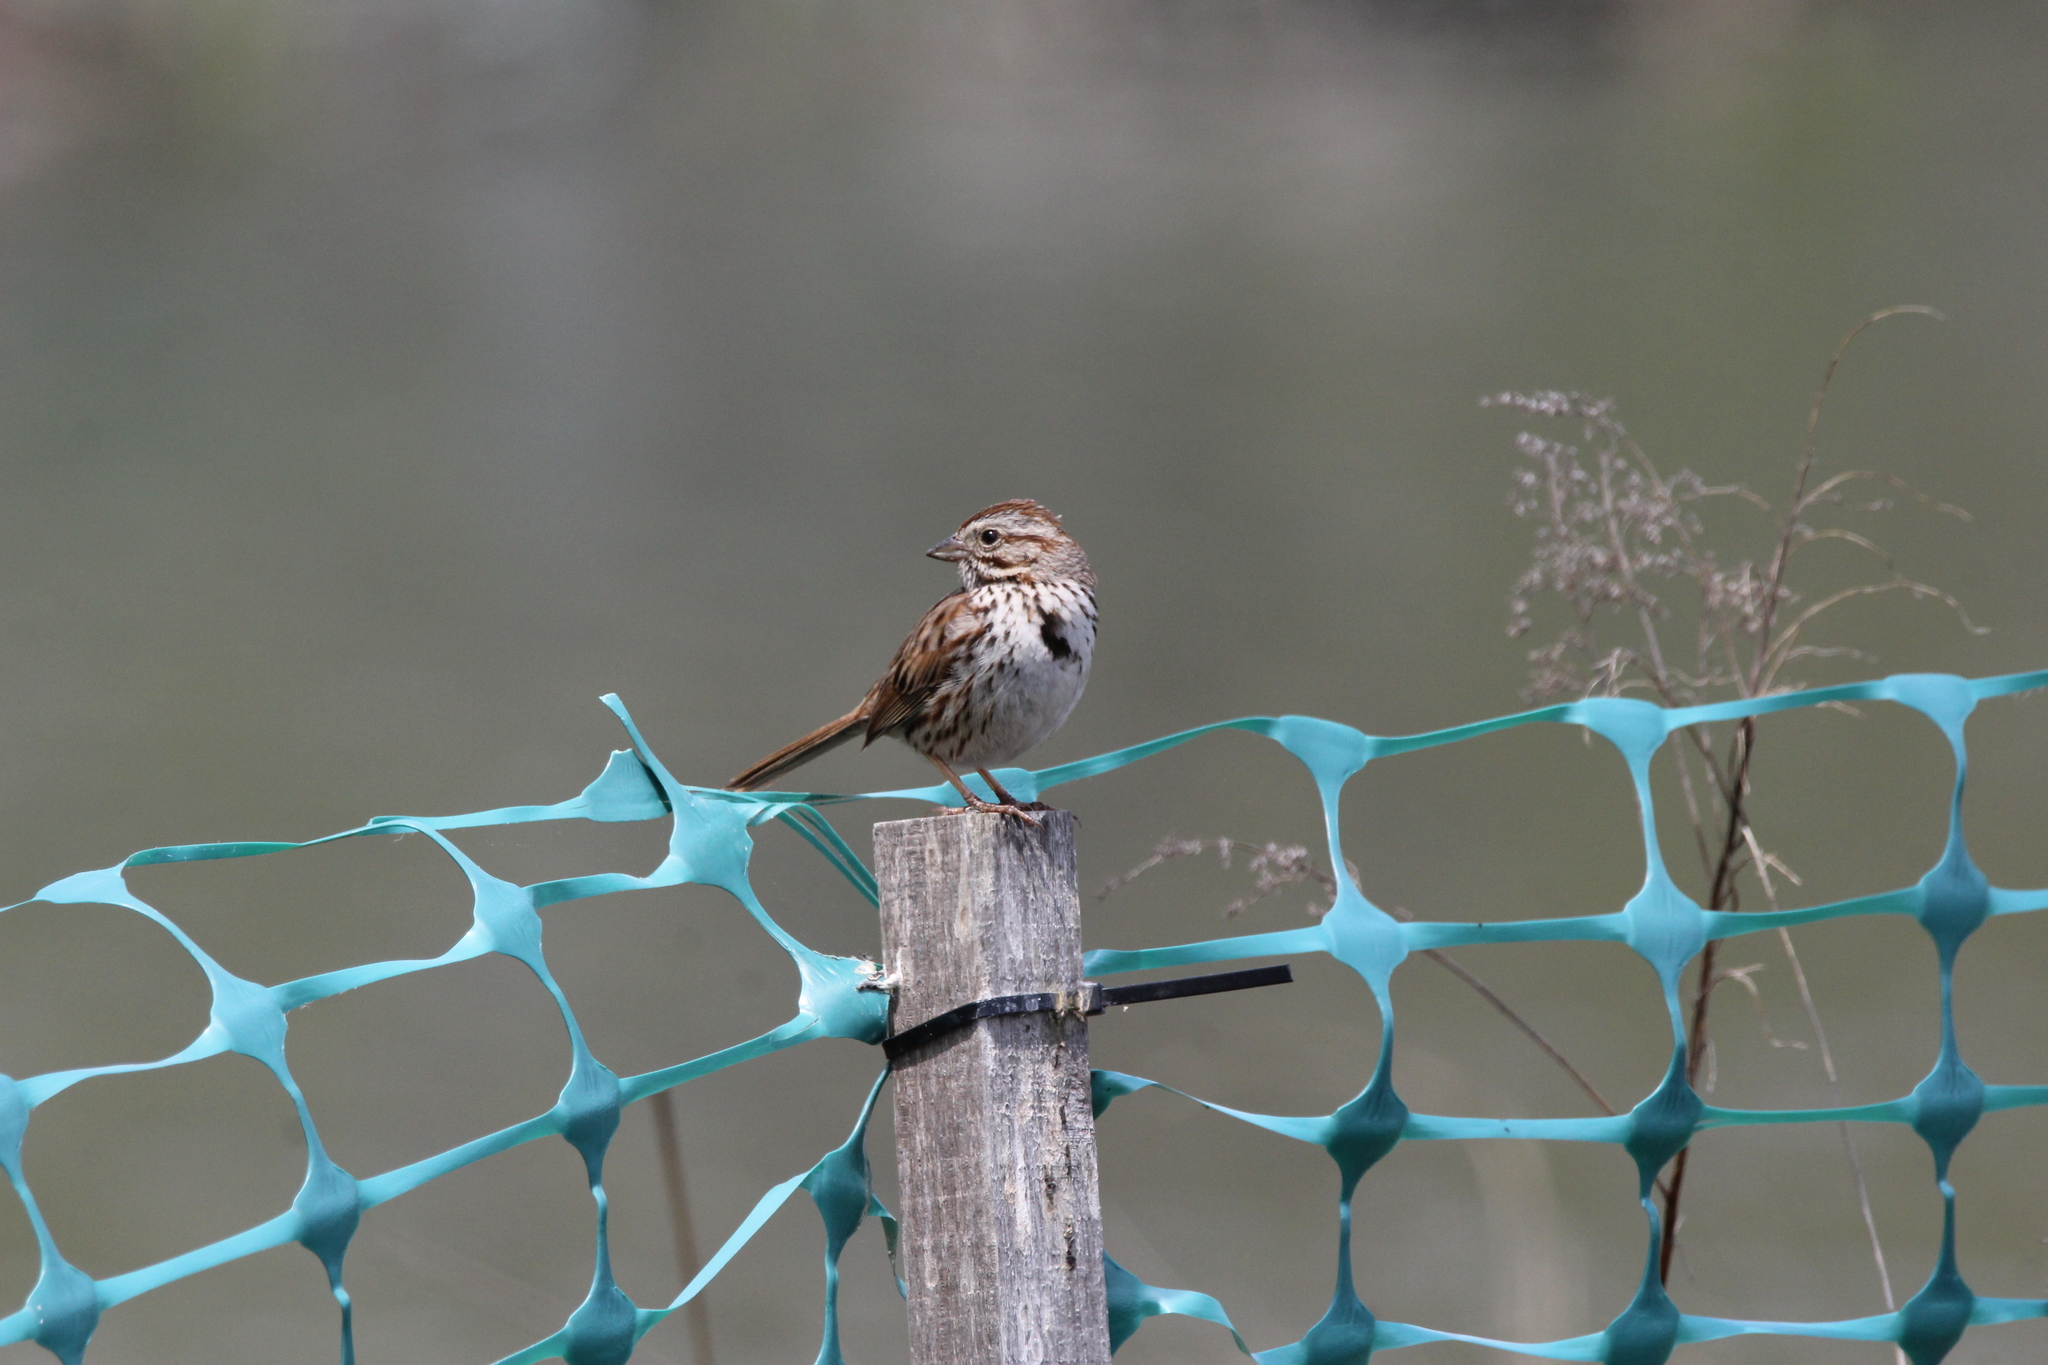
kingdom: Animalia
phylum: Chordata
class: Aves
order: Passeriformes
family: Passerellidae
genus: Melospiza
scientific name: Melospiza melodia
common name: Song sparrow
